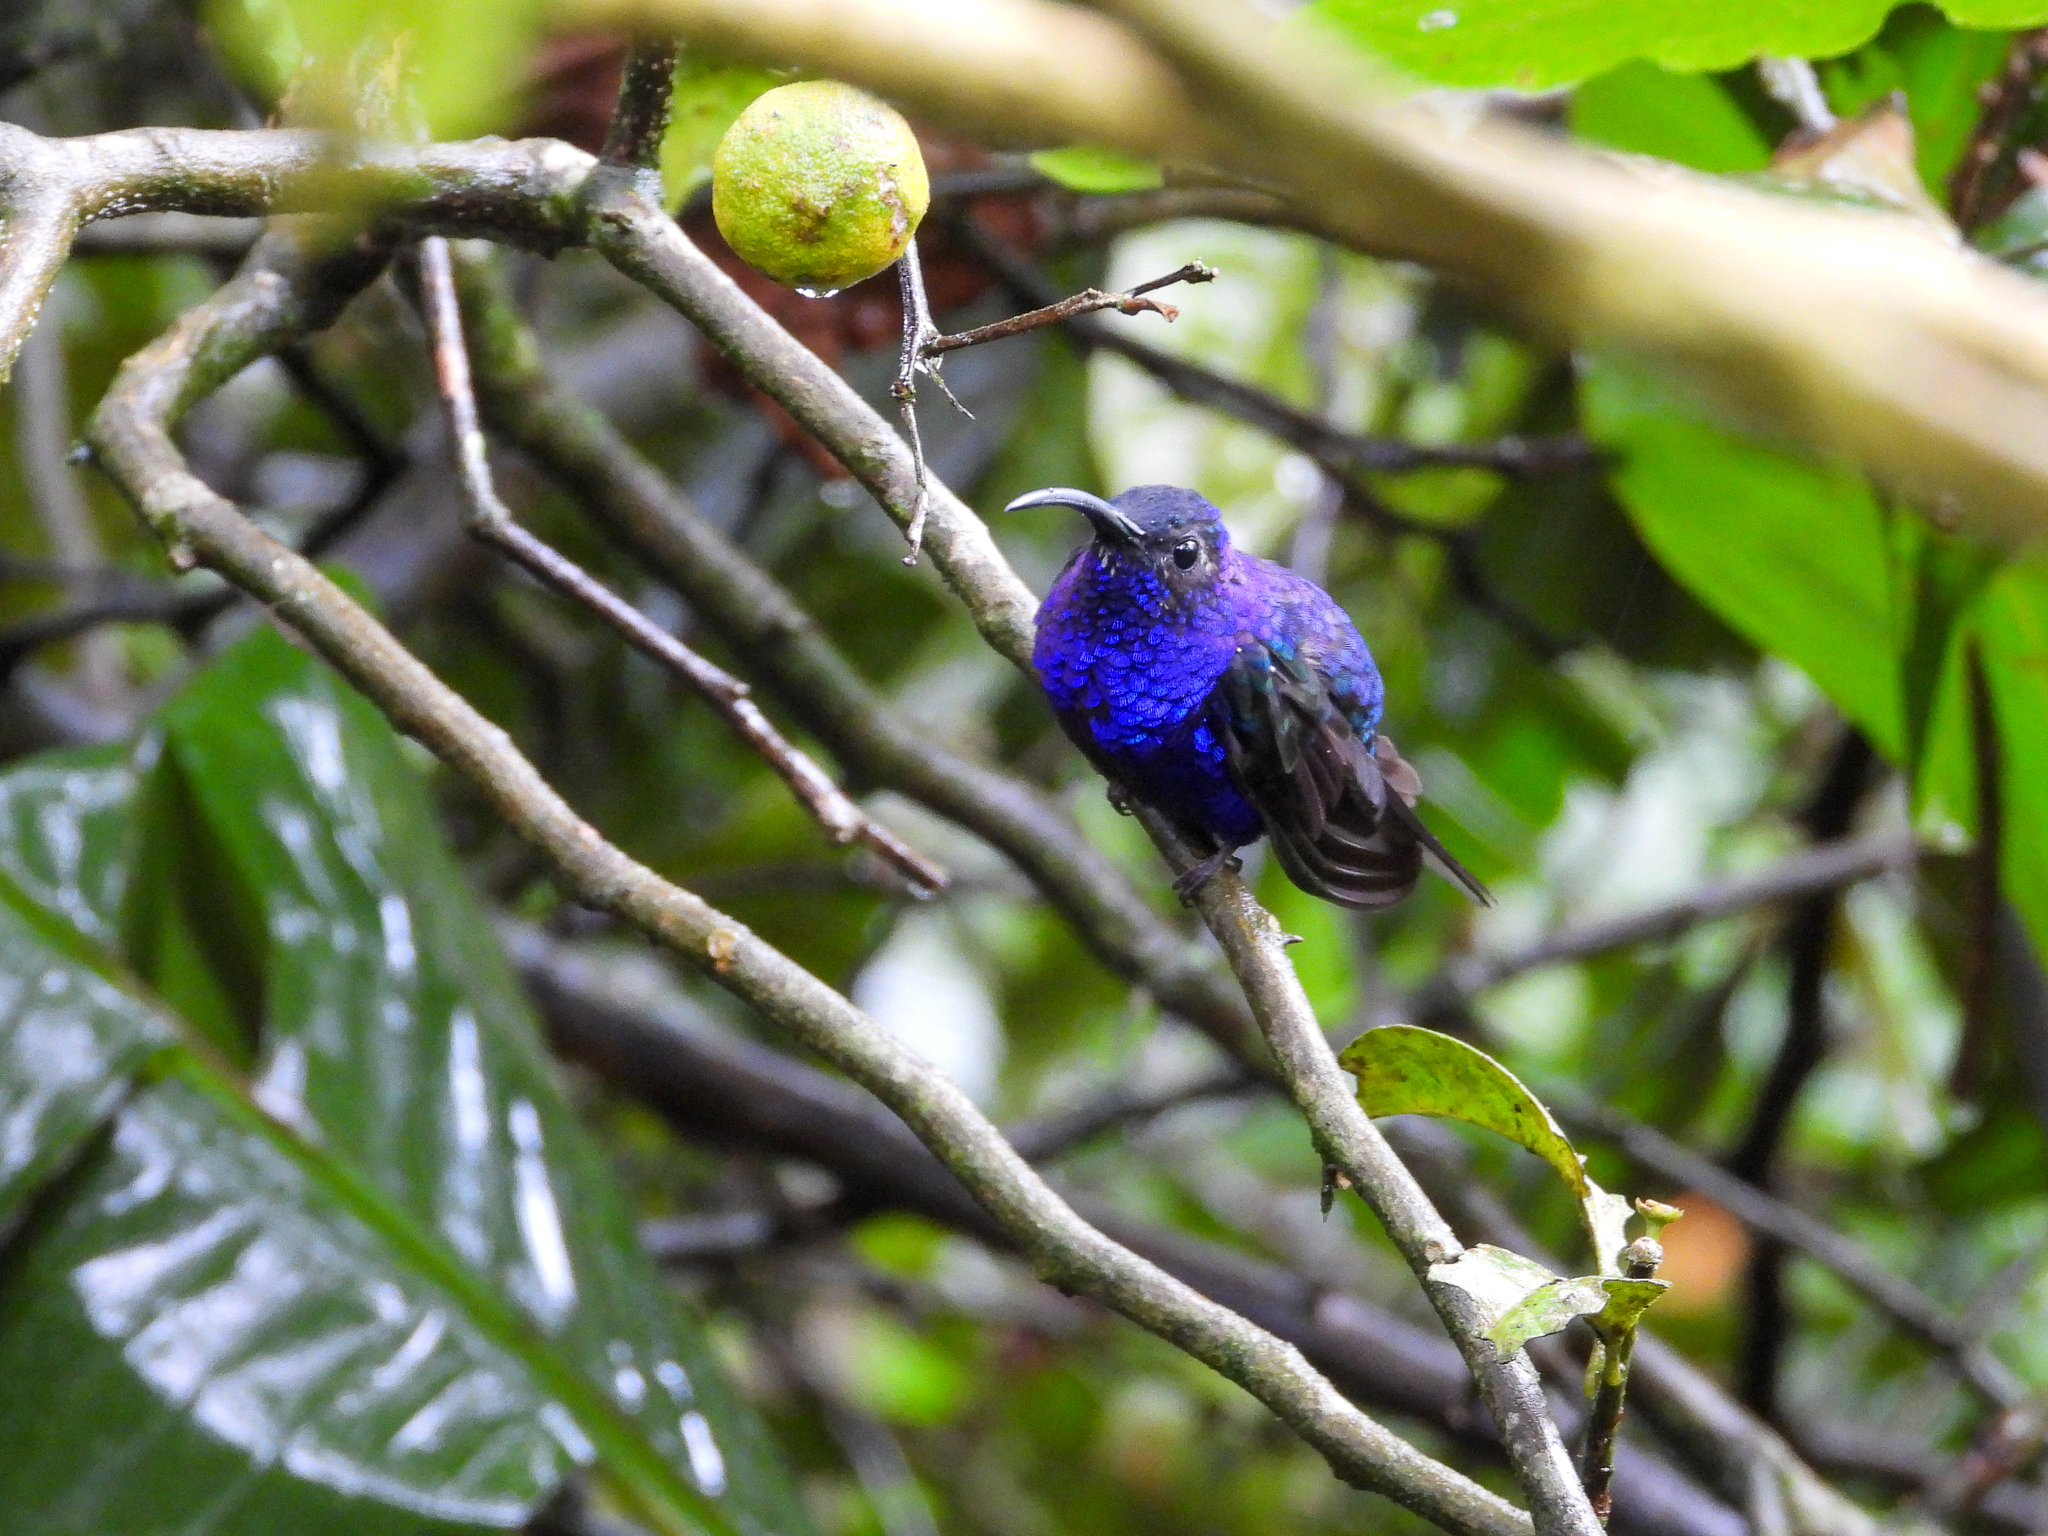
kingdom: Animalia
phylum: Chordata
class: Aves
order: Apodiformes
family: Trochilidae
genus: Campylopterus
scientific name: Campylopterus hemileucurus
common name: Violet sabrewing
